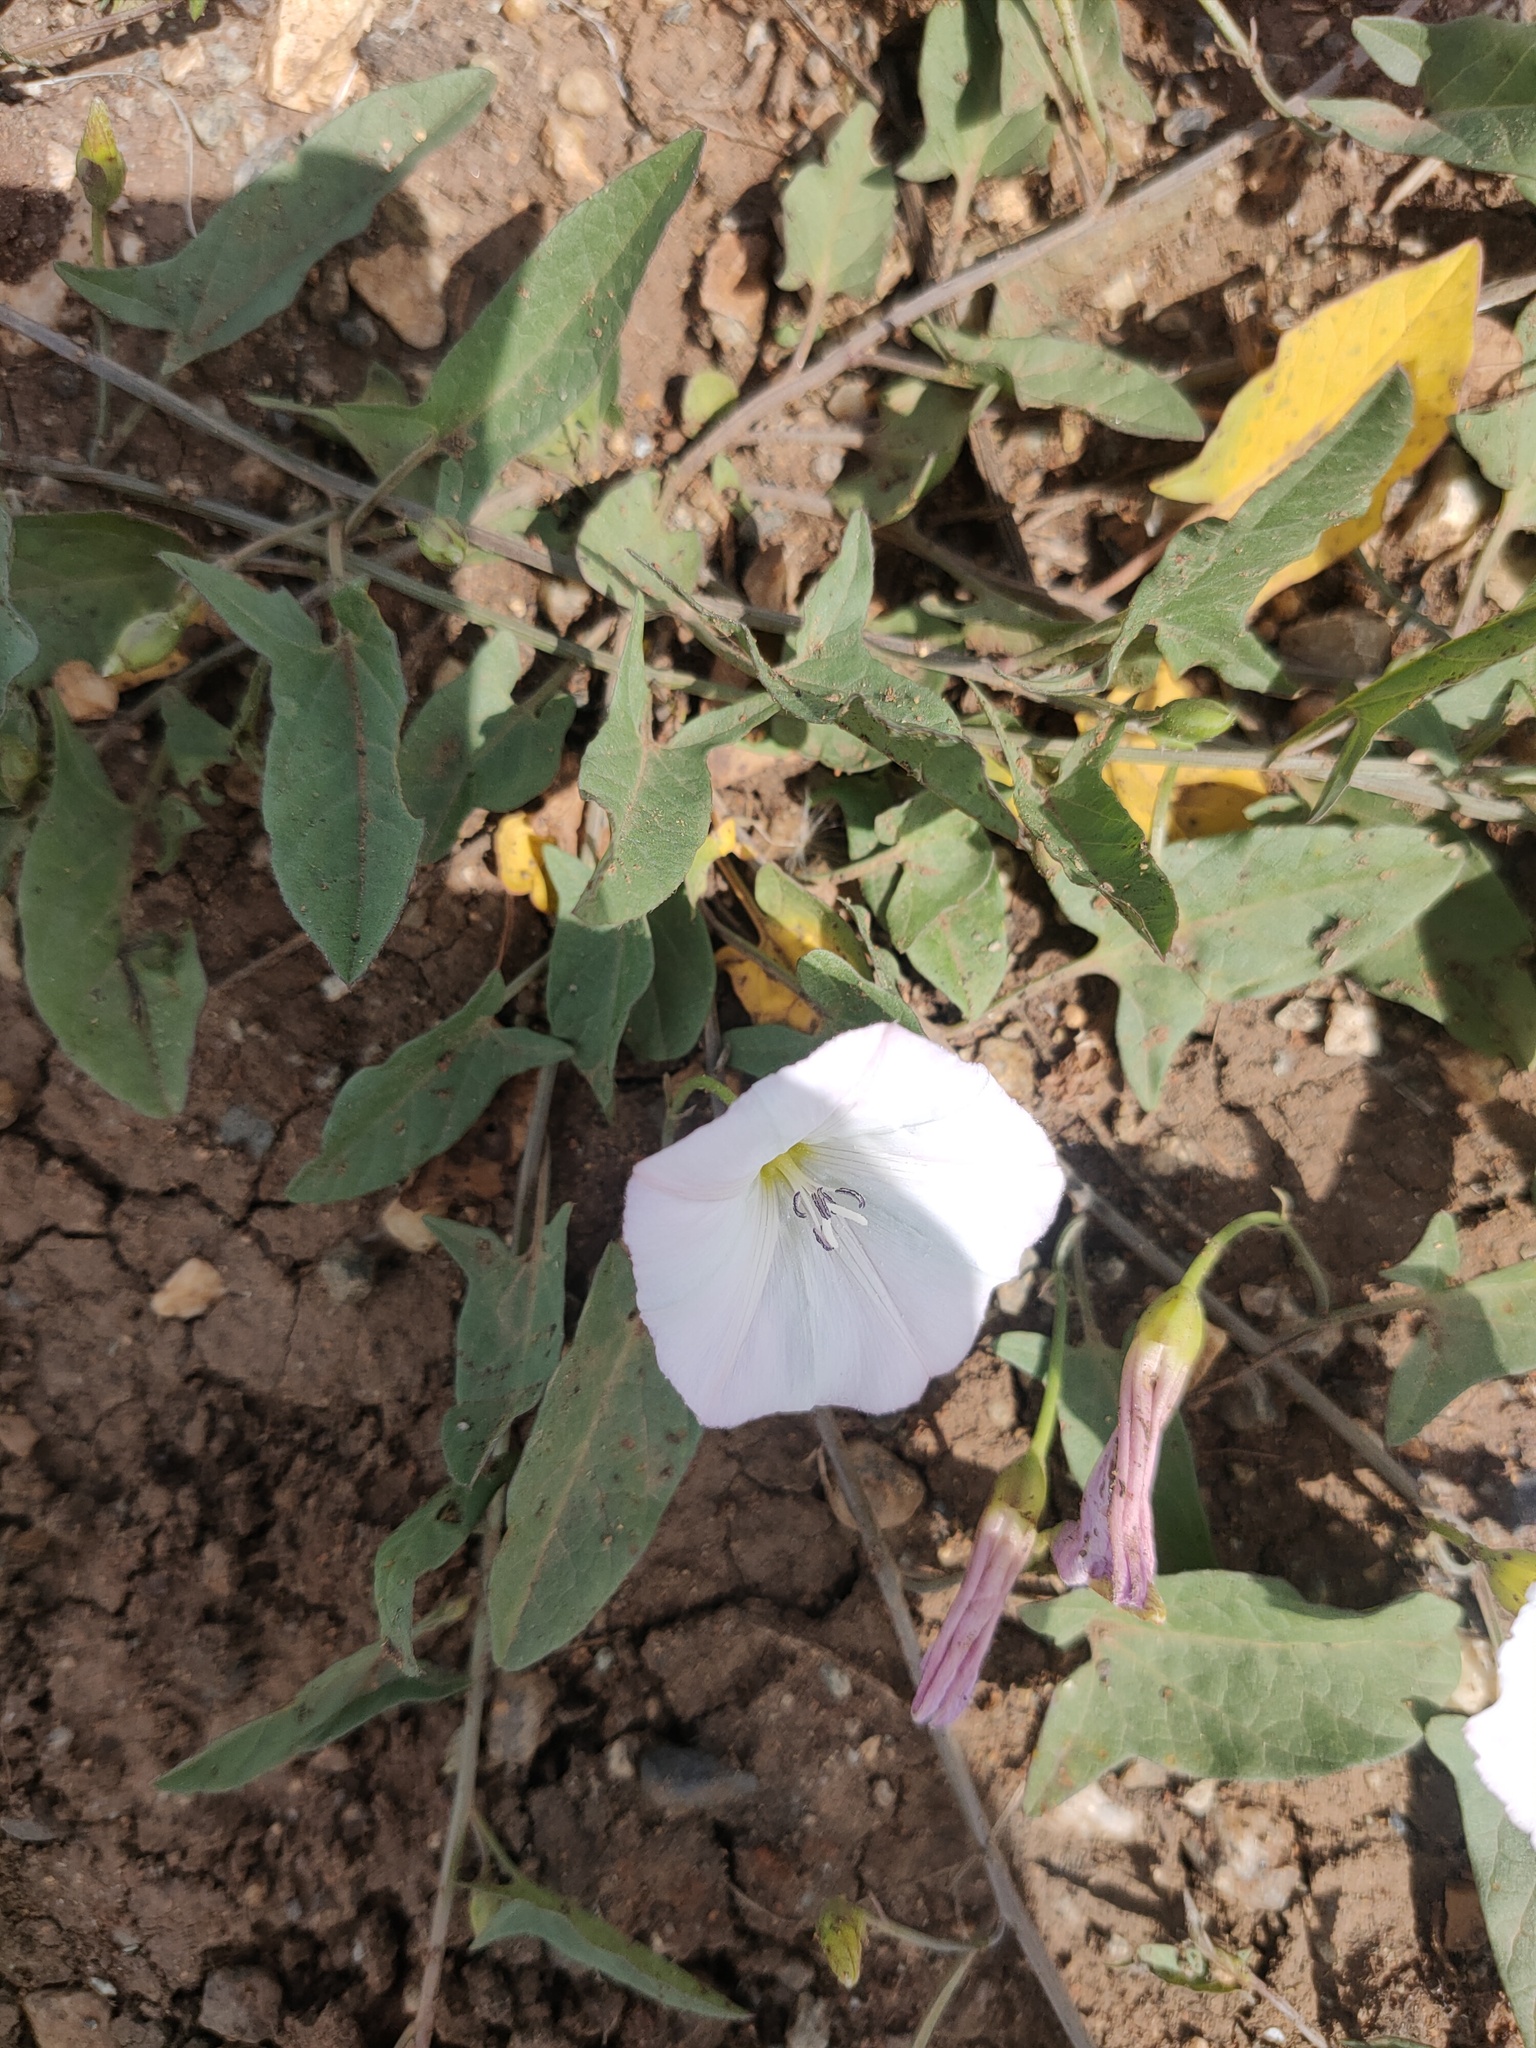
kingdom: Plantae
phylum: Tracheophyta
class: Magnoliopsida
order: Solanales
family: Convolvulaceae
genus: Convolvulus
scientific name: Convolvulus arvensis
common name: Field bindweed
